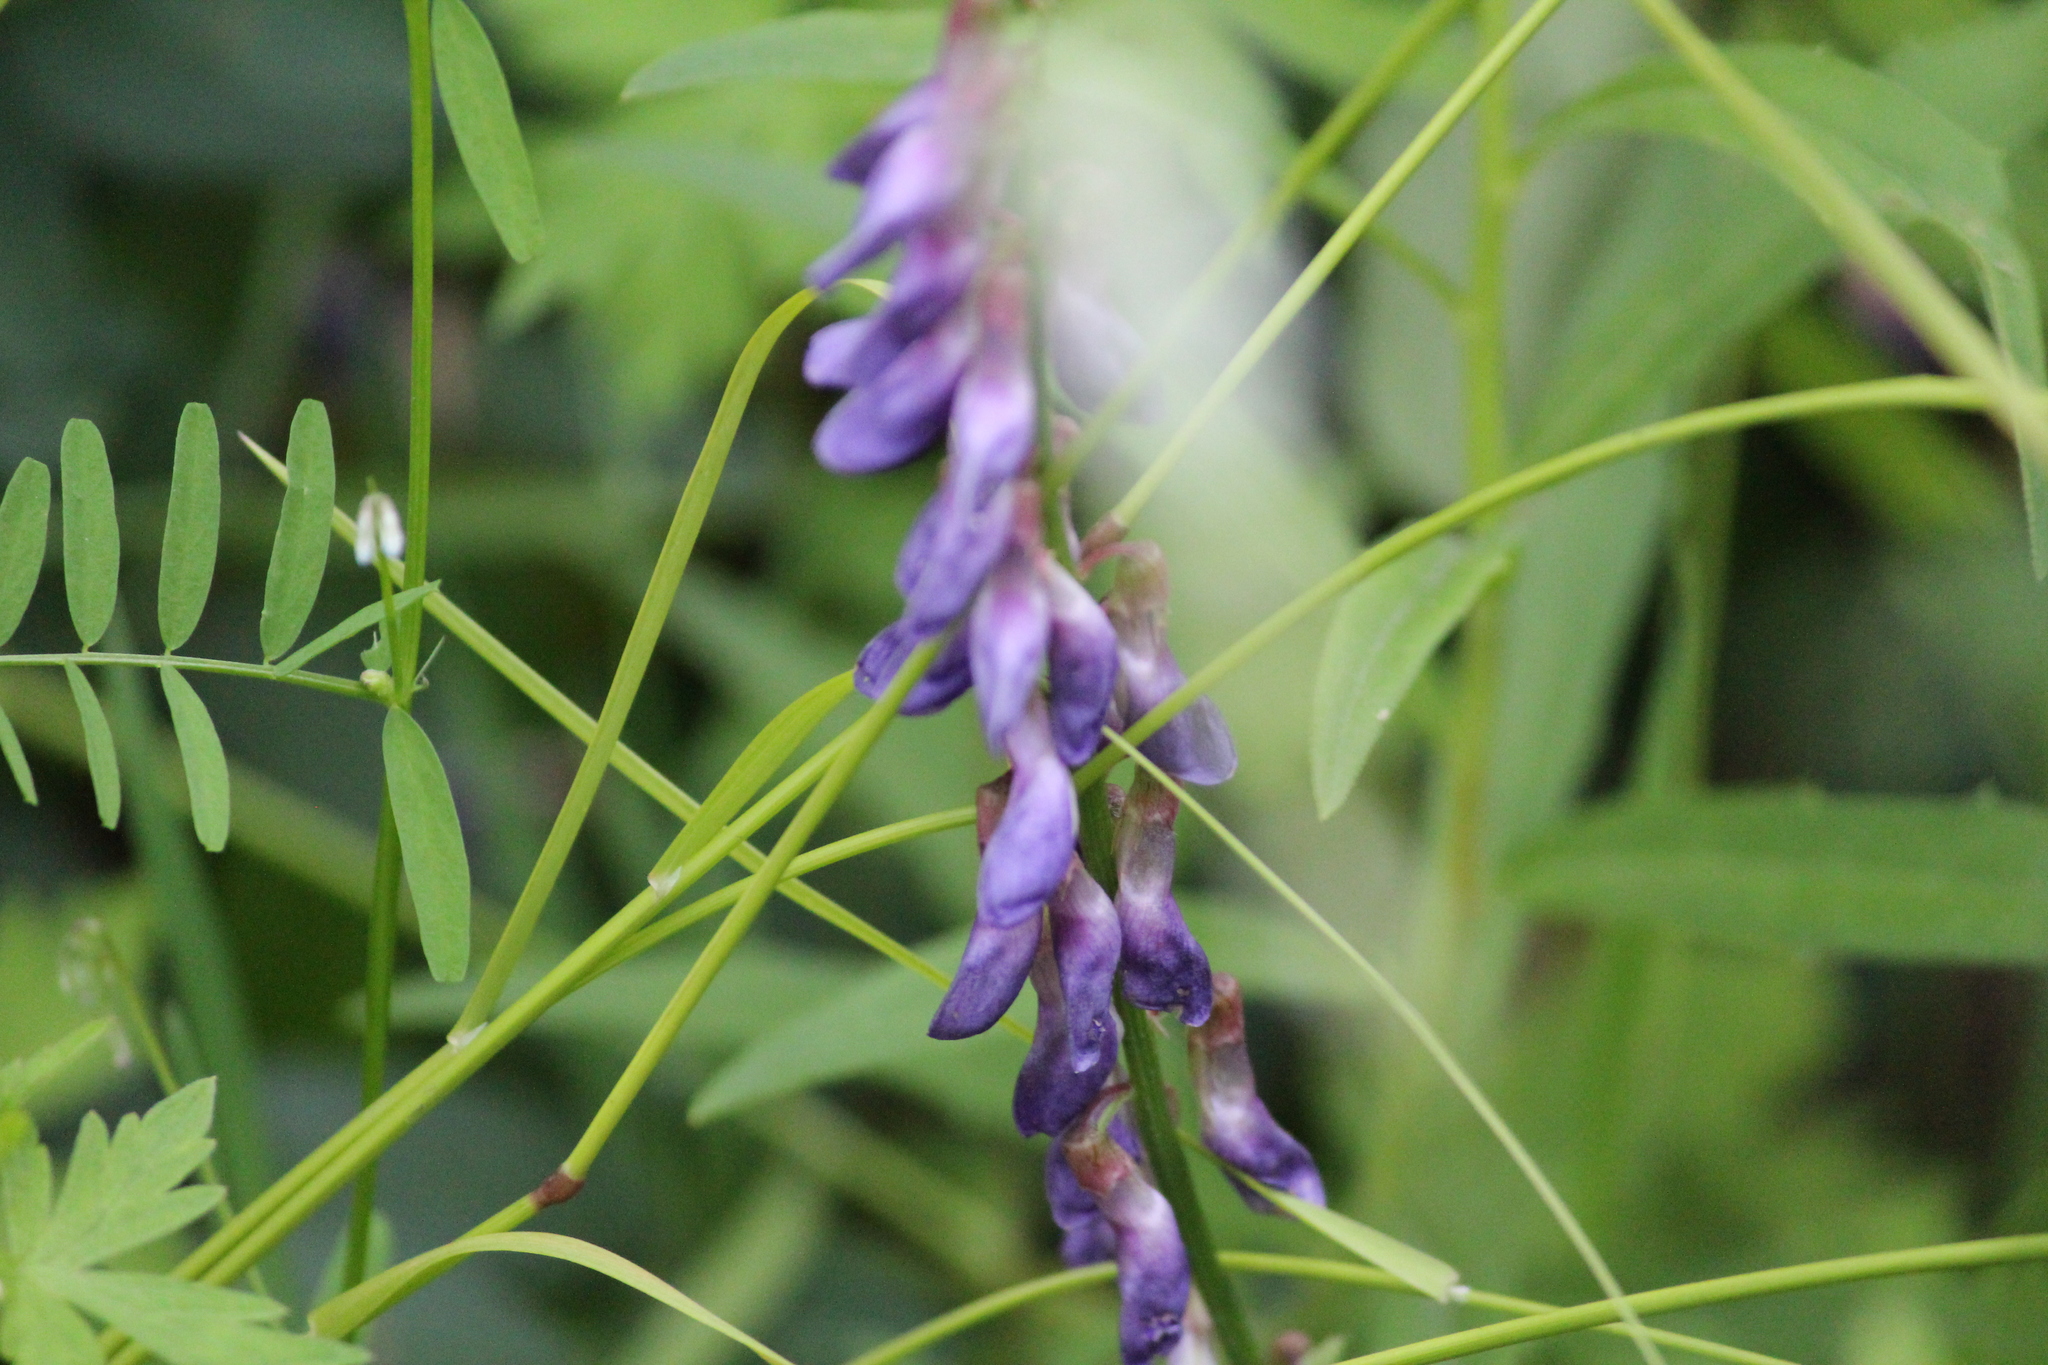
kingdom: Plantae
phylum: Tracheophyta
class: Magnoliopsida
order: Fabales
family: Fabaceae
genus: Vicia
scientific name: Vicia amoena
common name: Cheder ebs
